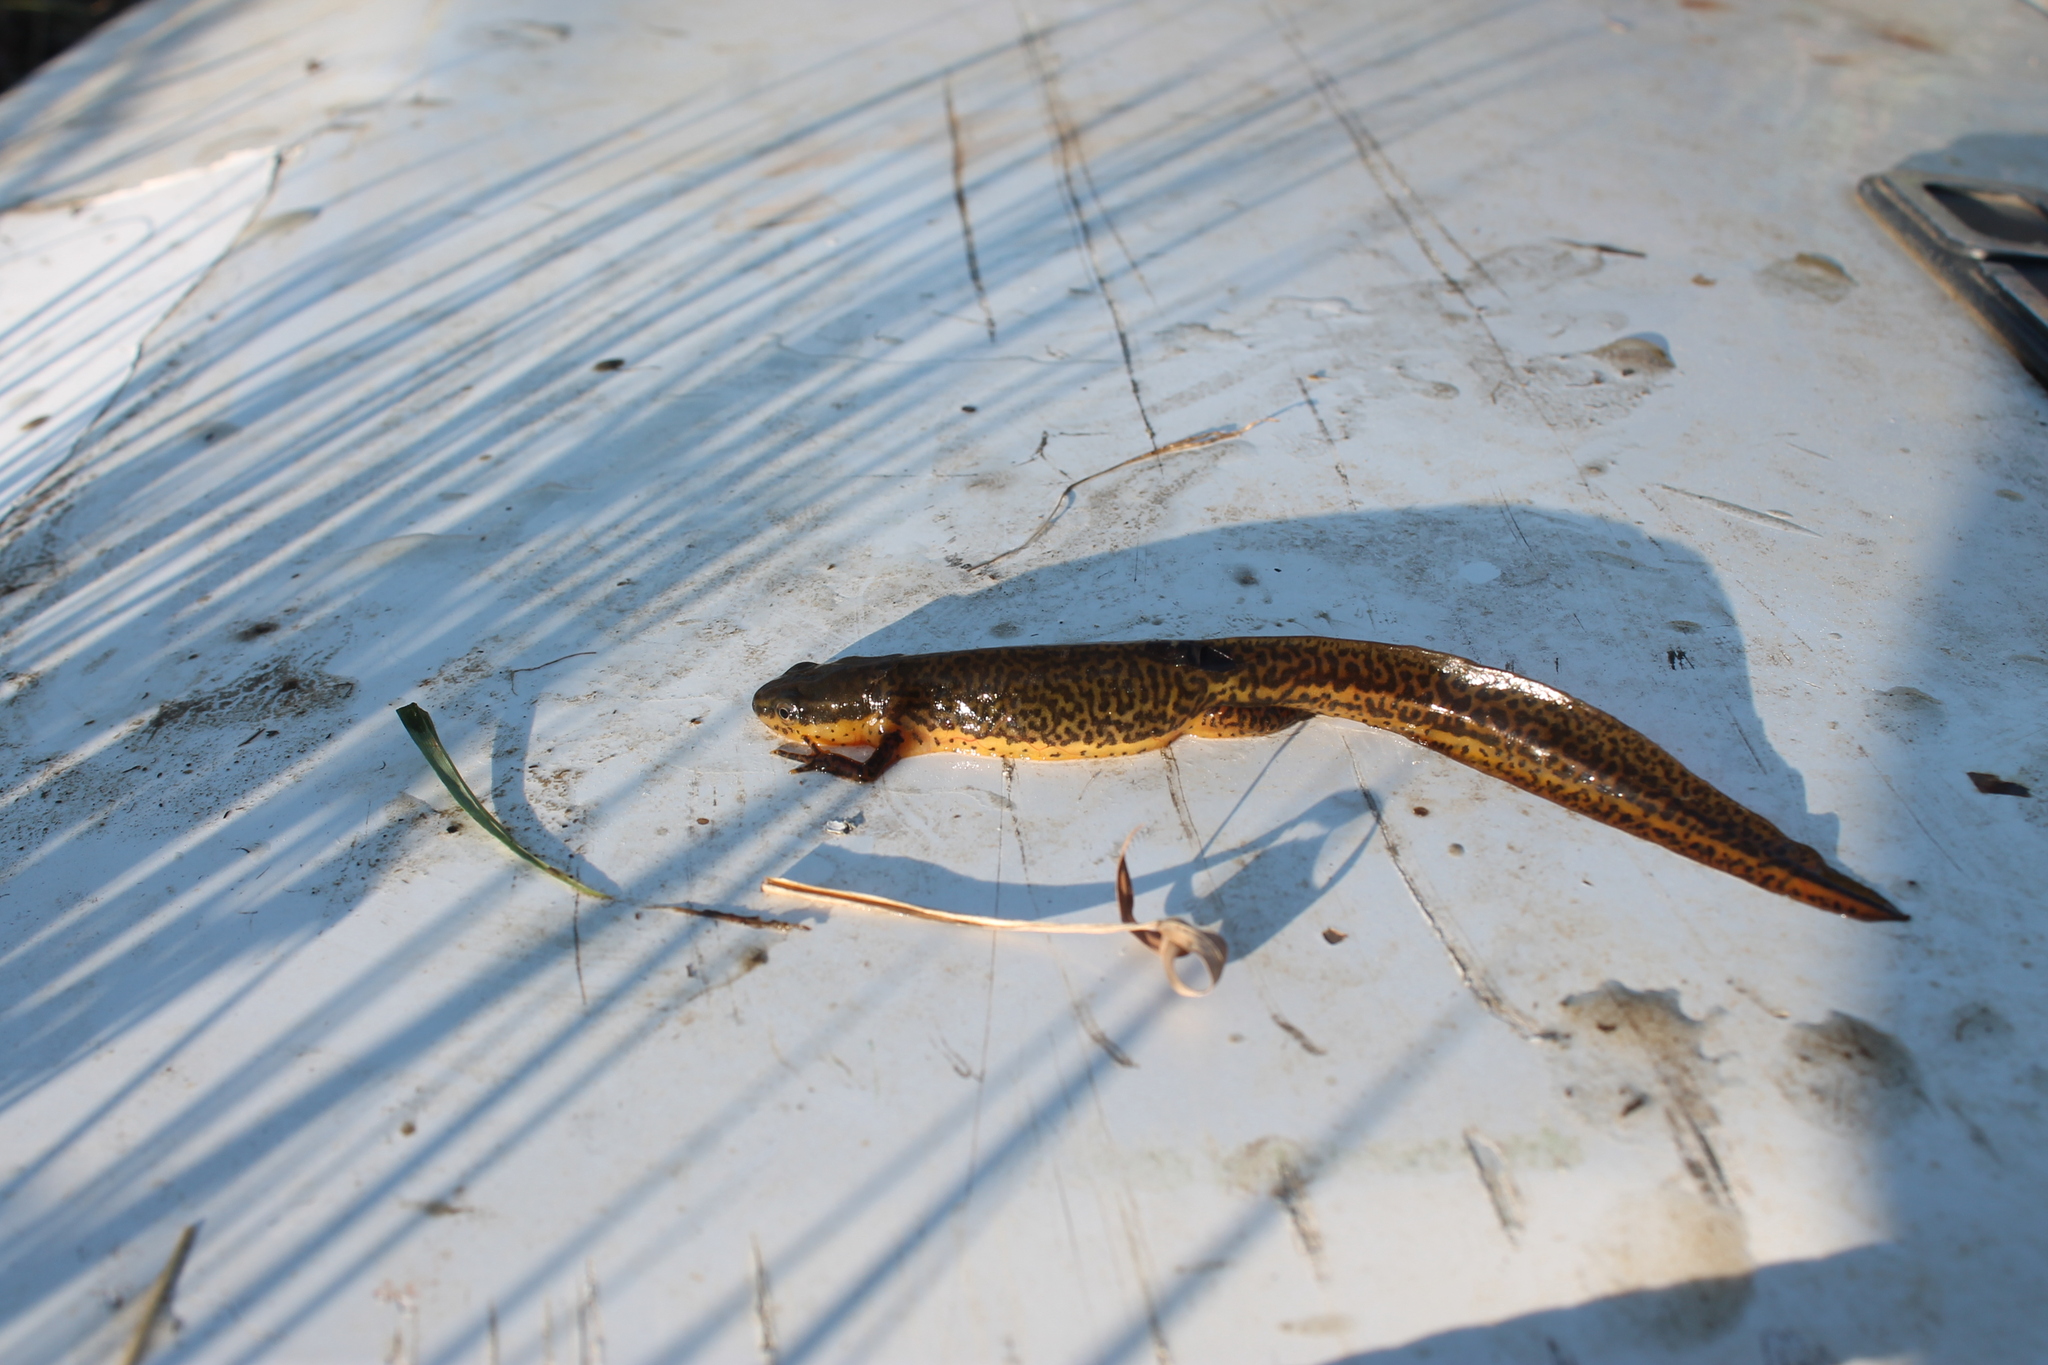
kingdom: Animalia
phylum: Chordata
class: Amphibia
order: Caudata
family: Salamandridae
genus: Notophthalmus
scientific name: Notophthalmus viridescens
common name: Eastern newt
